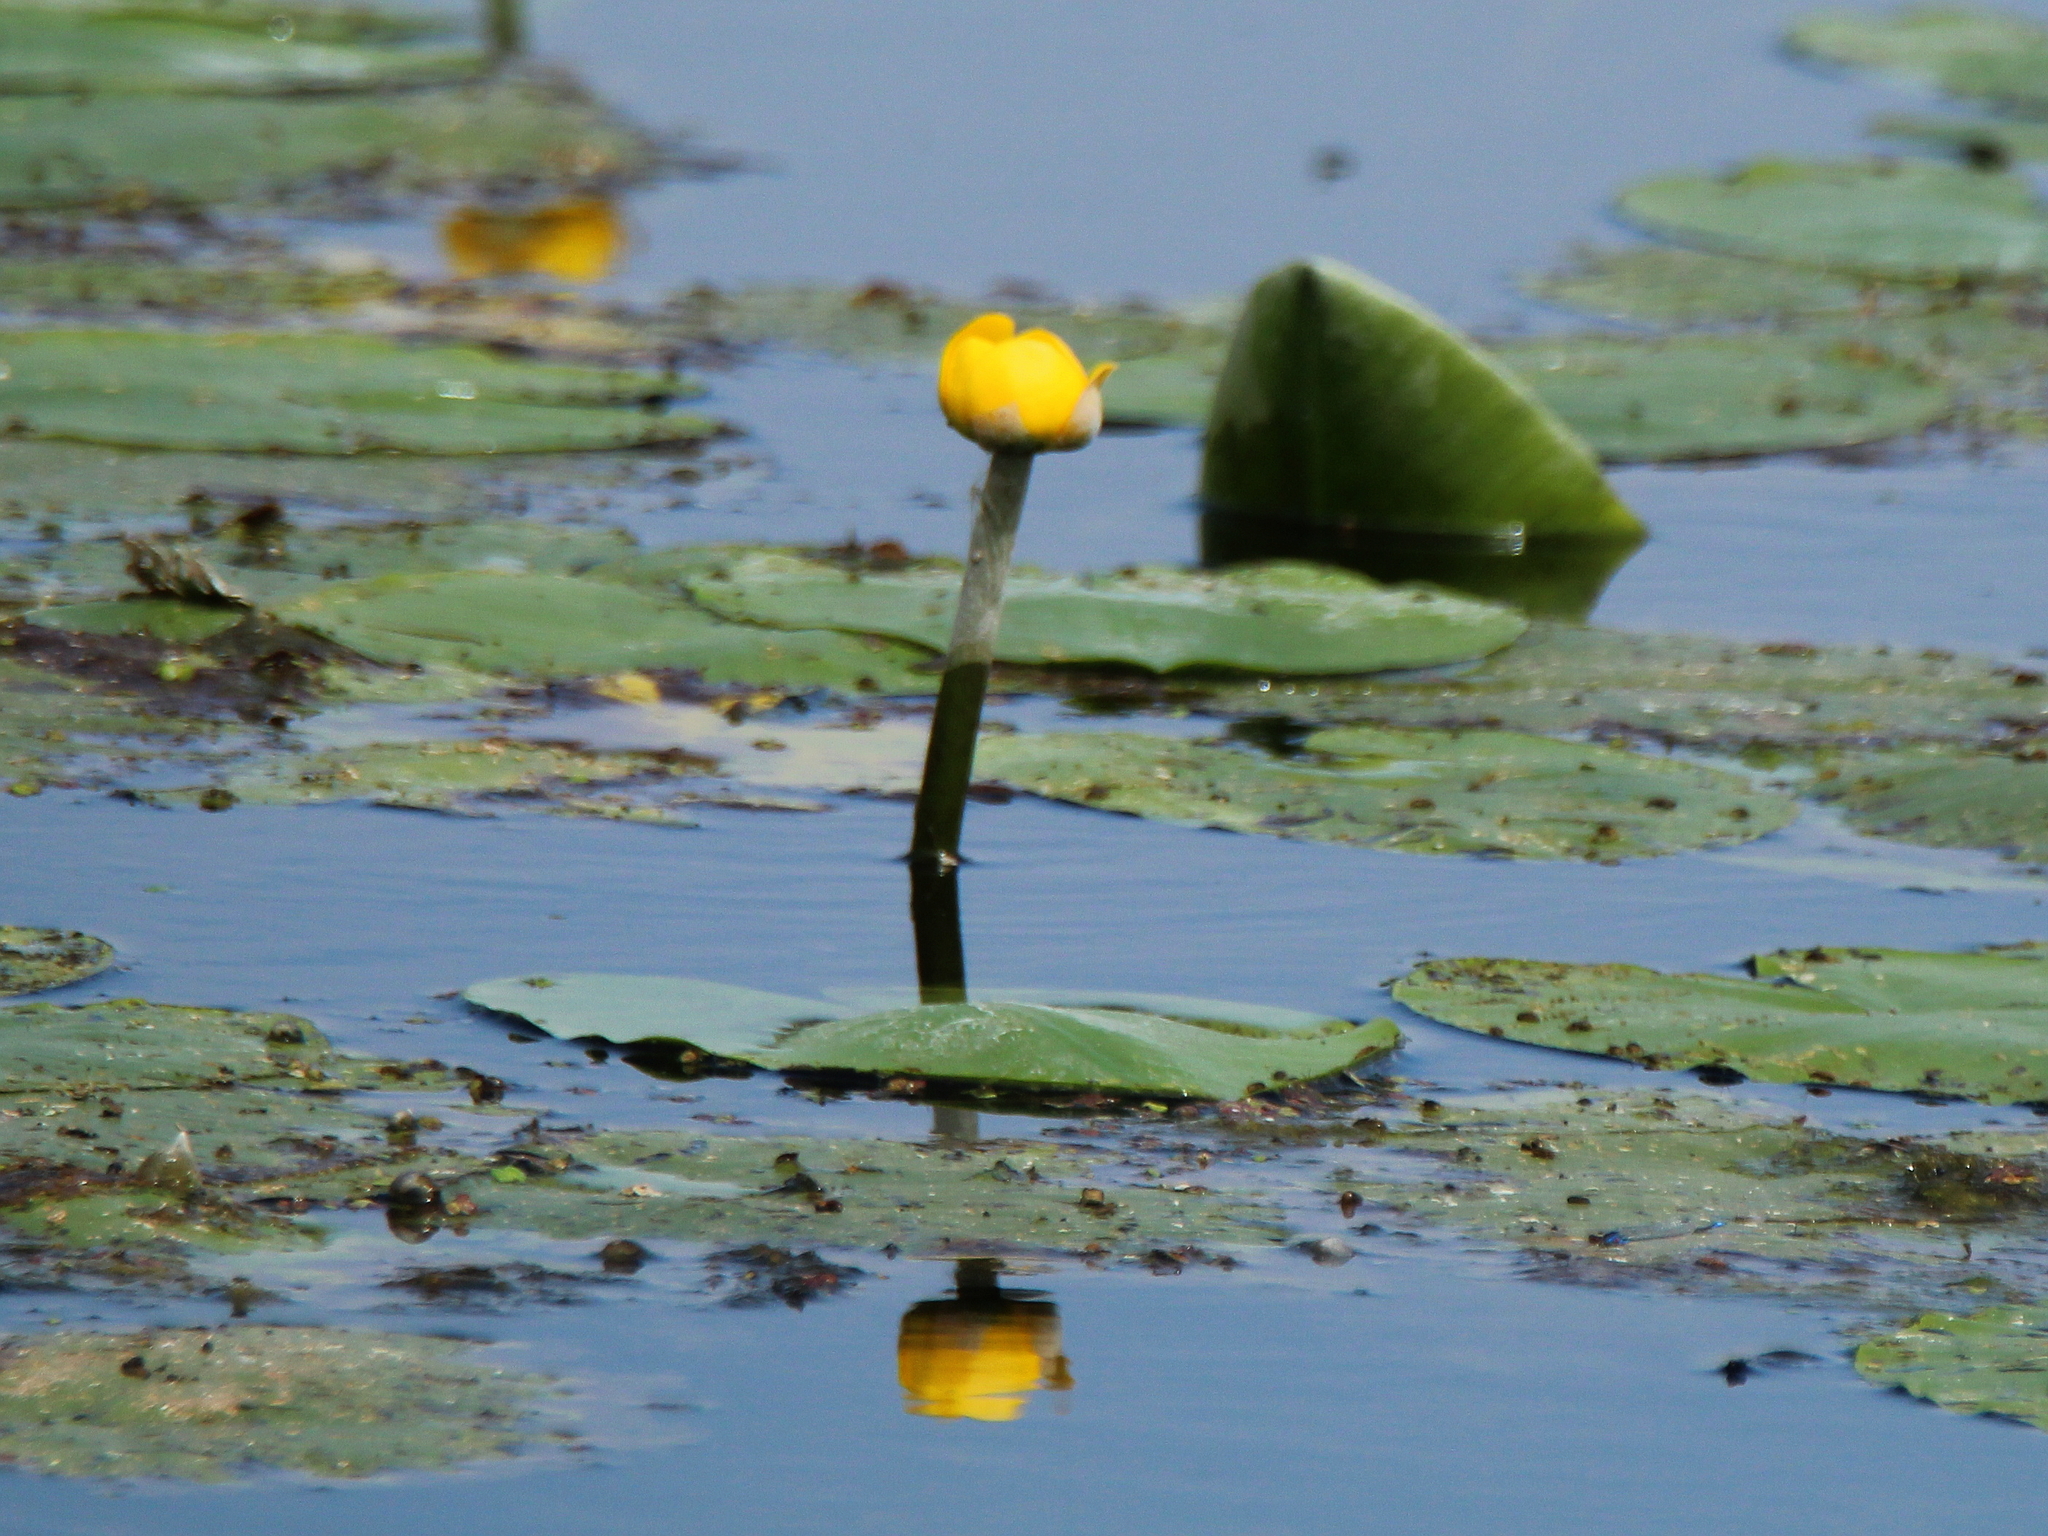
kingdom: Plantae
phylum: Tracheophyta
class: Magnoliopsida
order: Nymphaeales
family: Nymphaeaceae
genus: Nuphar
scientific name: Nuphar lutea
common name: Yellow water-lily
